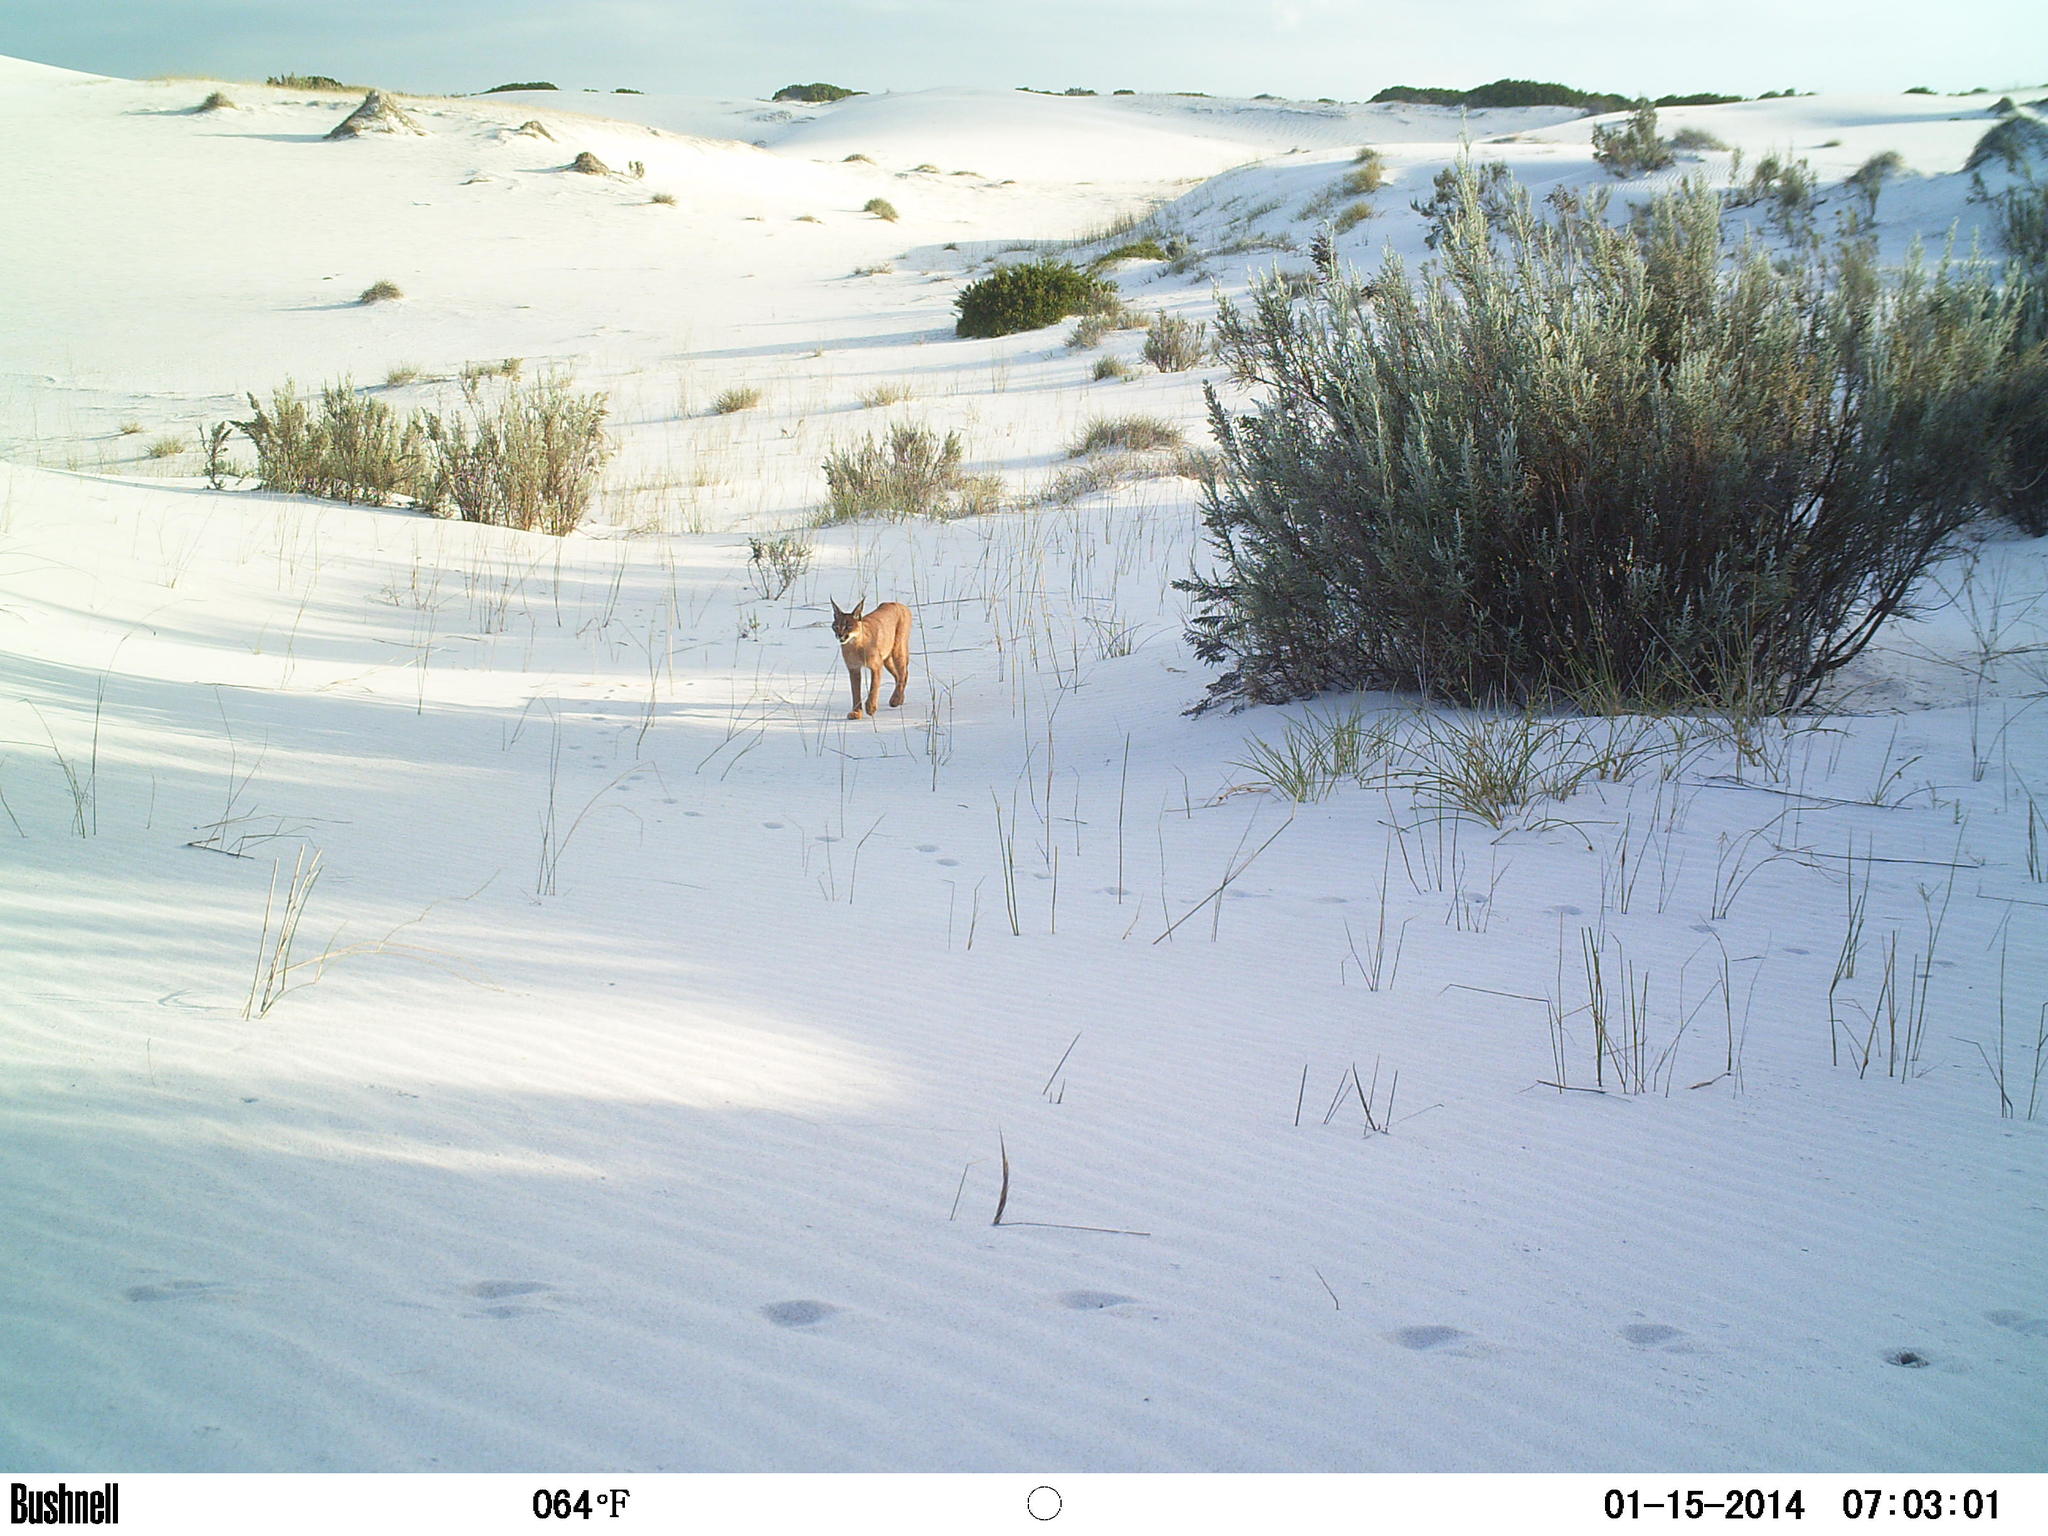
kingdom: Animalia
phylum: Chordata
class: Mammalia
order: Carnivora
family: Felidae
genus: Caracal
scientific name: Caracal caracal
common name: Caracal
